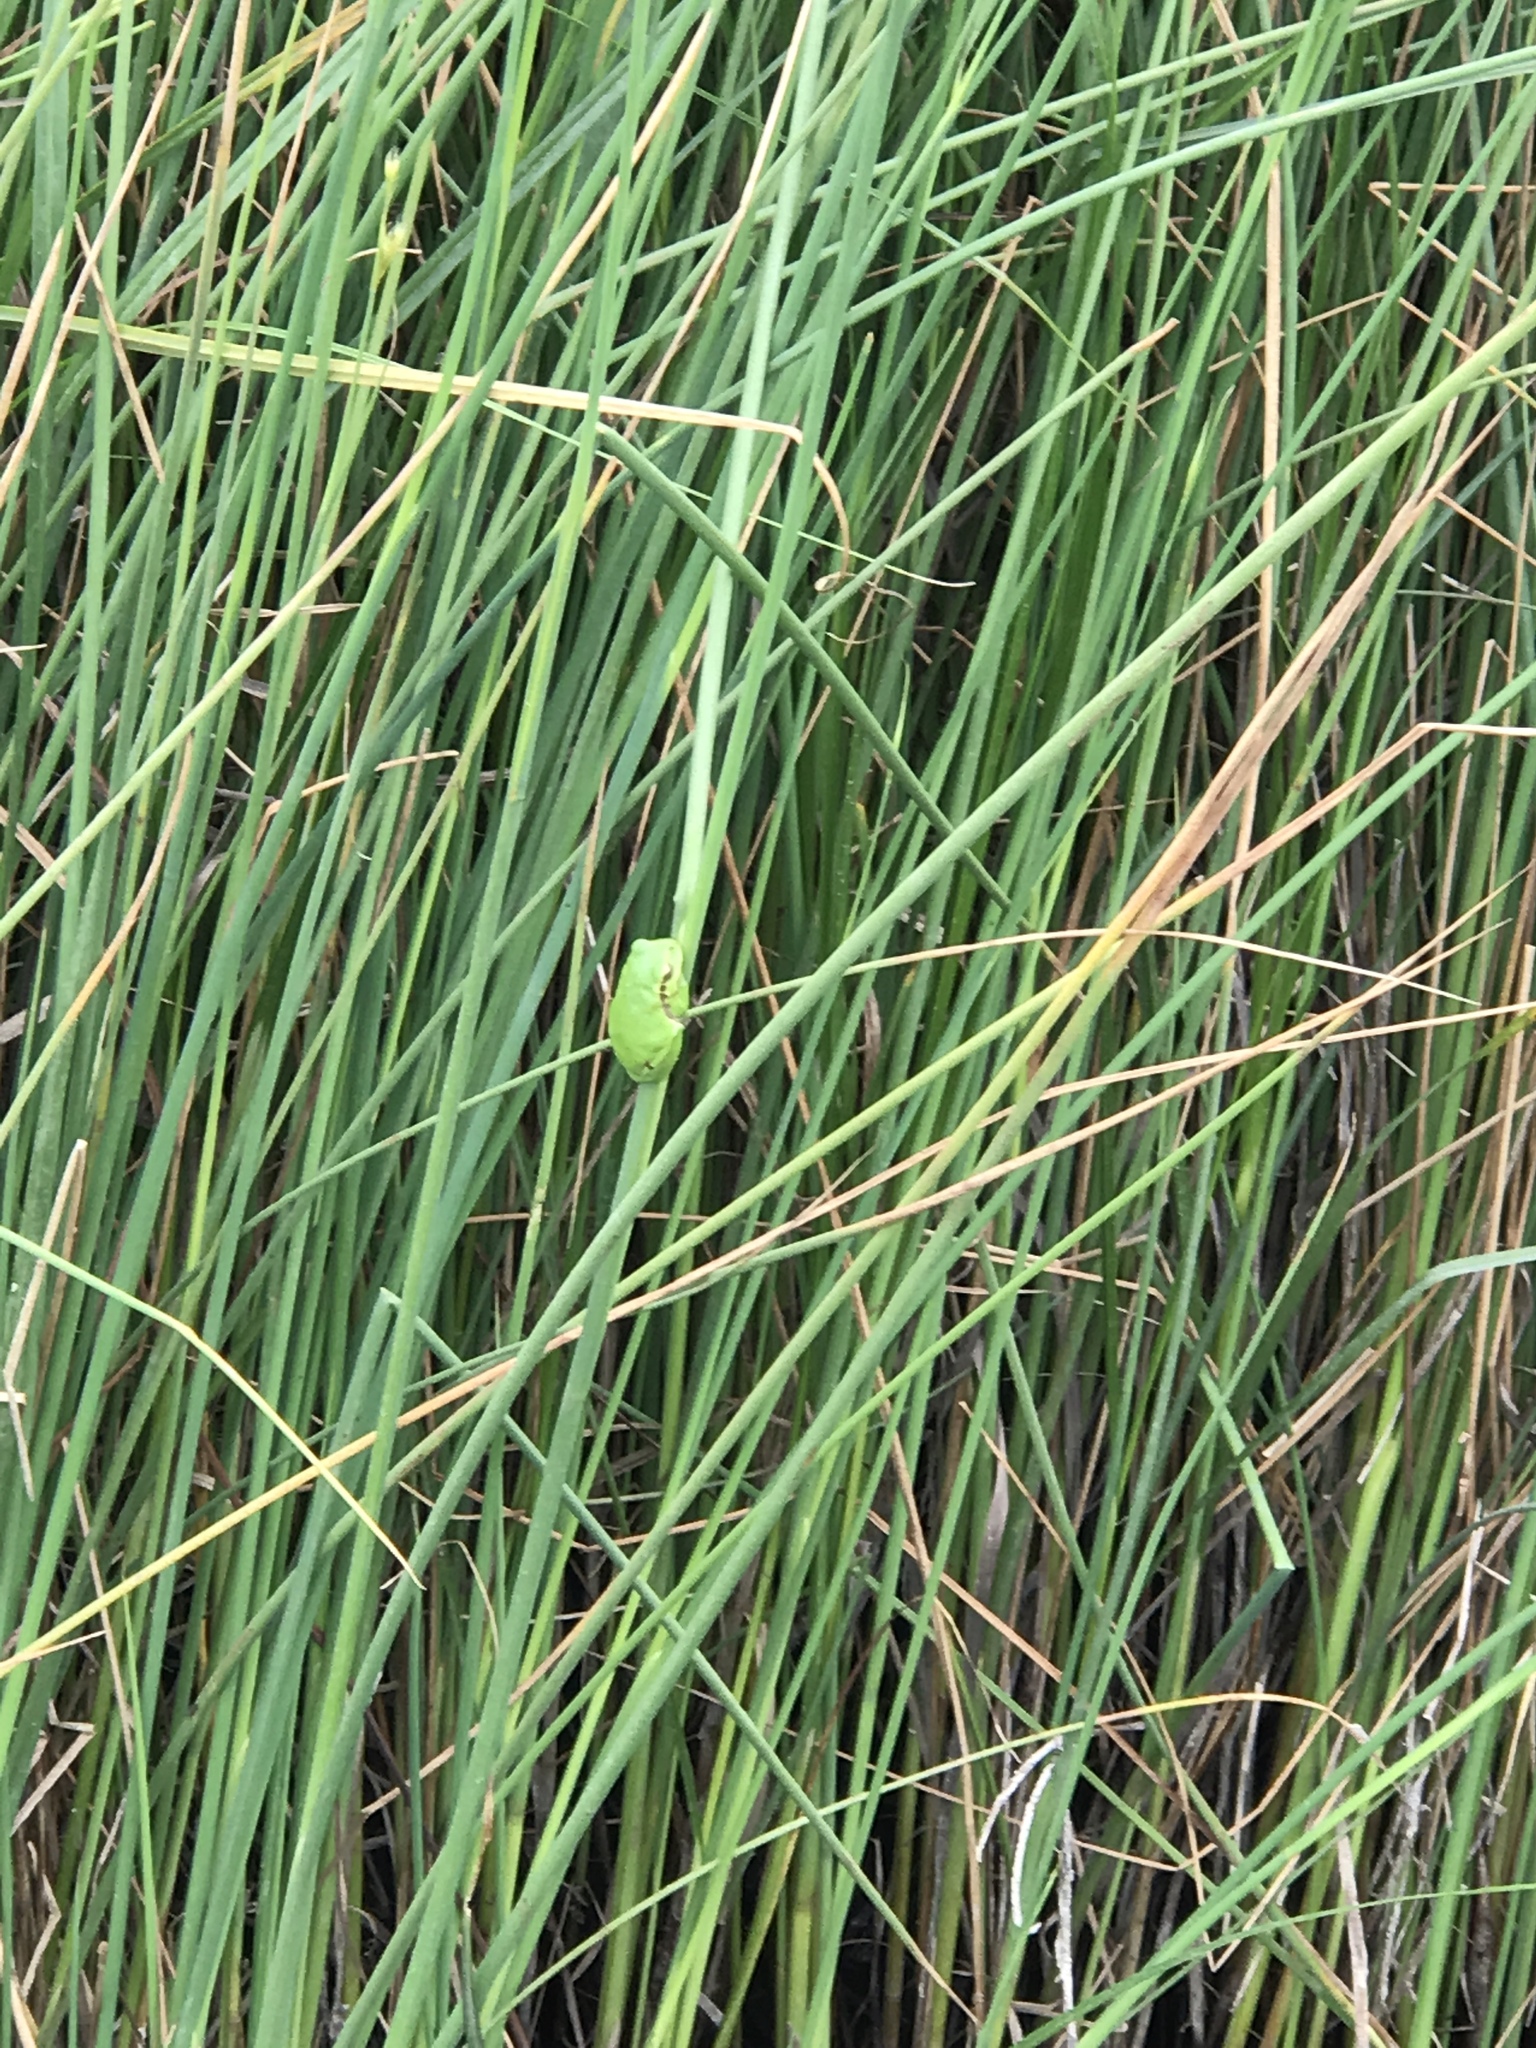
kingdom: Animalia
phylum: Chordata
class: Amphibia
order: Anura
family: Hylidae
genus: Hyla
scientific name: Hyla arborea
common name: Common tree frog
